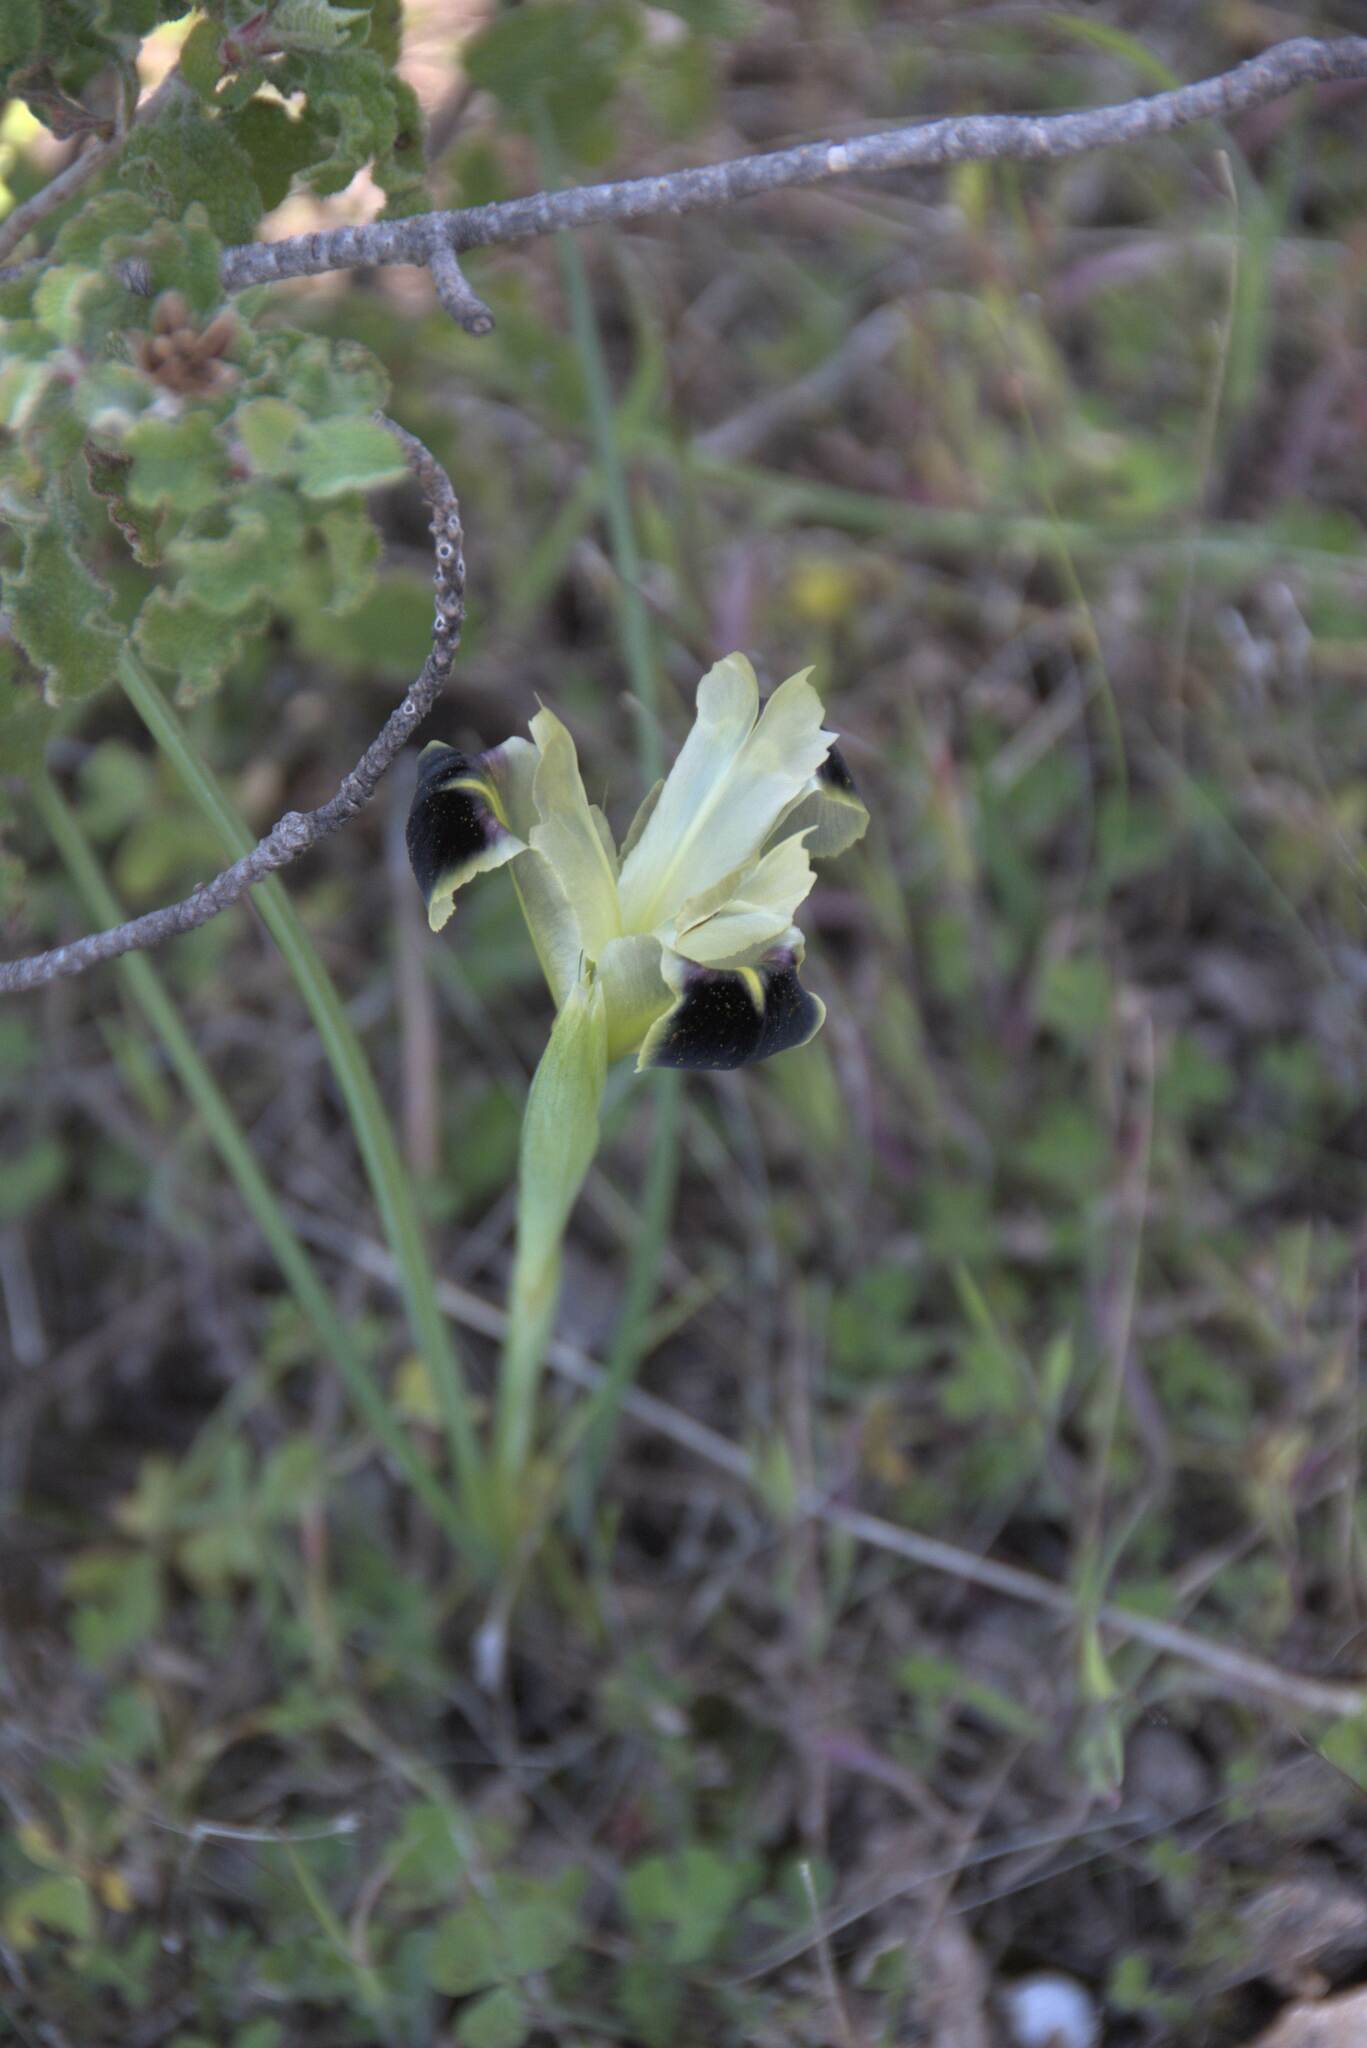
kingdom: Plantae
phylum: Tracheophyta
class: Liliopsida
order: Asparagales
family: Iridaceae
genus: Iris
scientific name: Iris tuberosa
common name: Snake's-head iris
